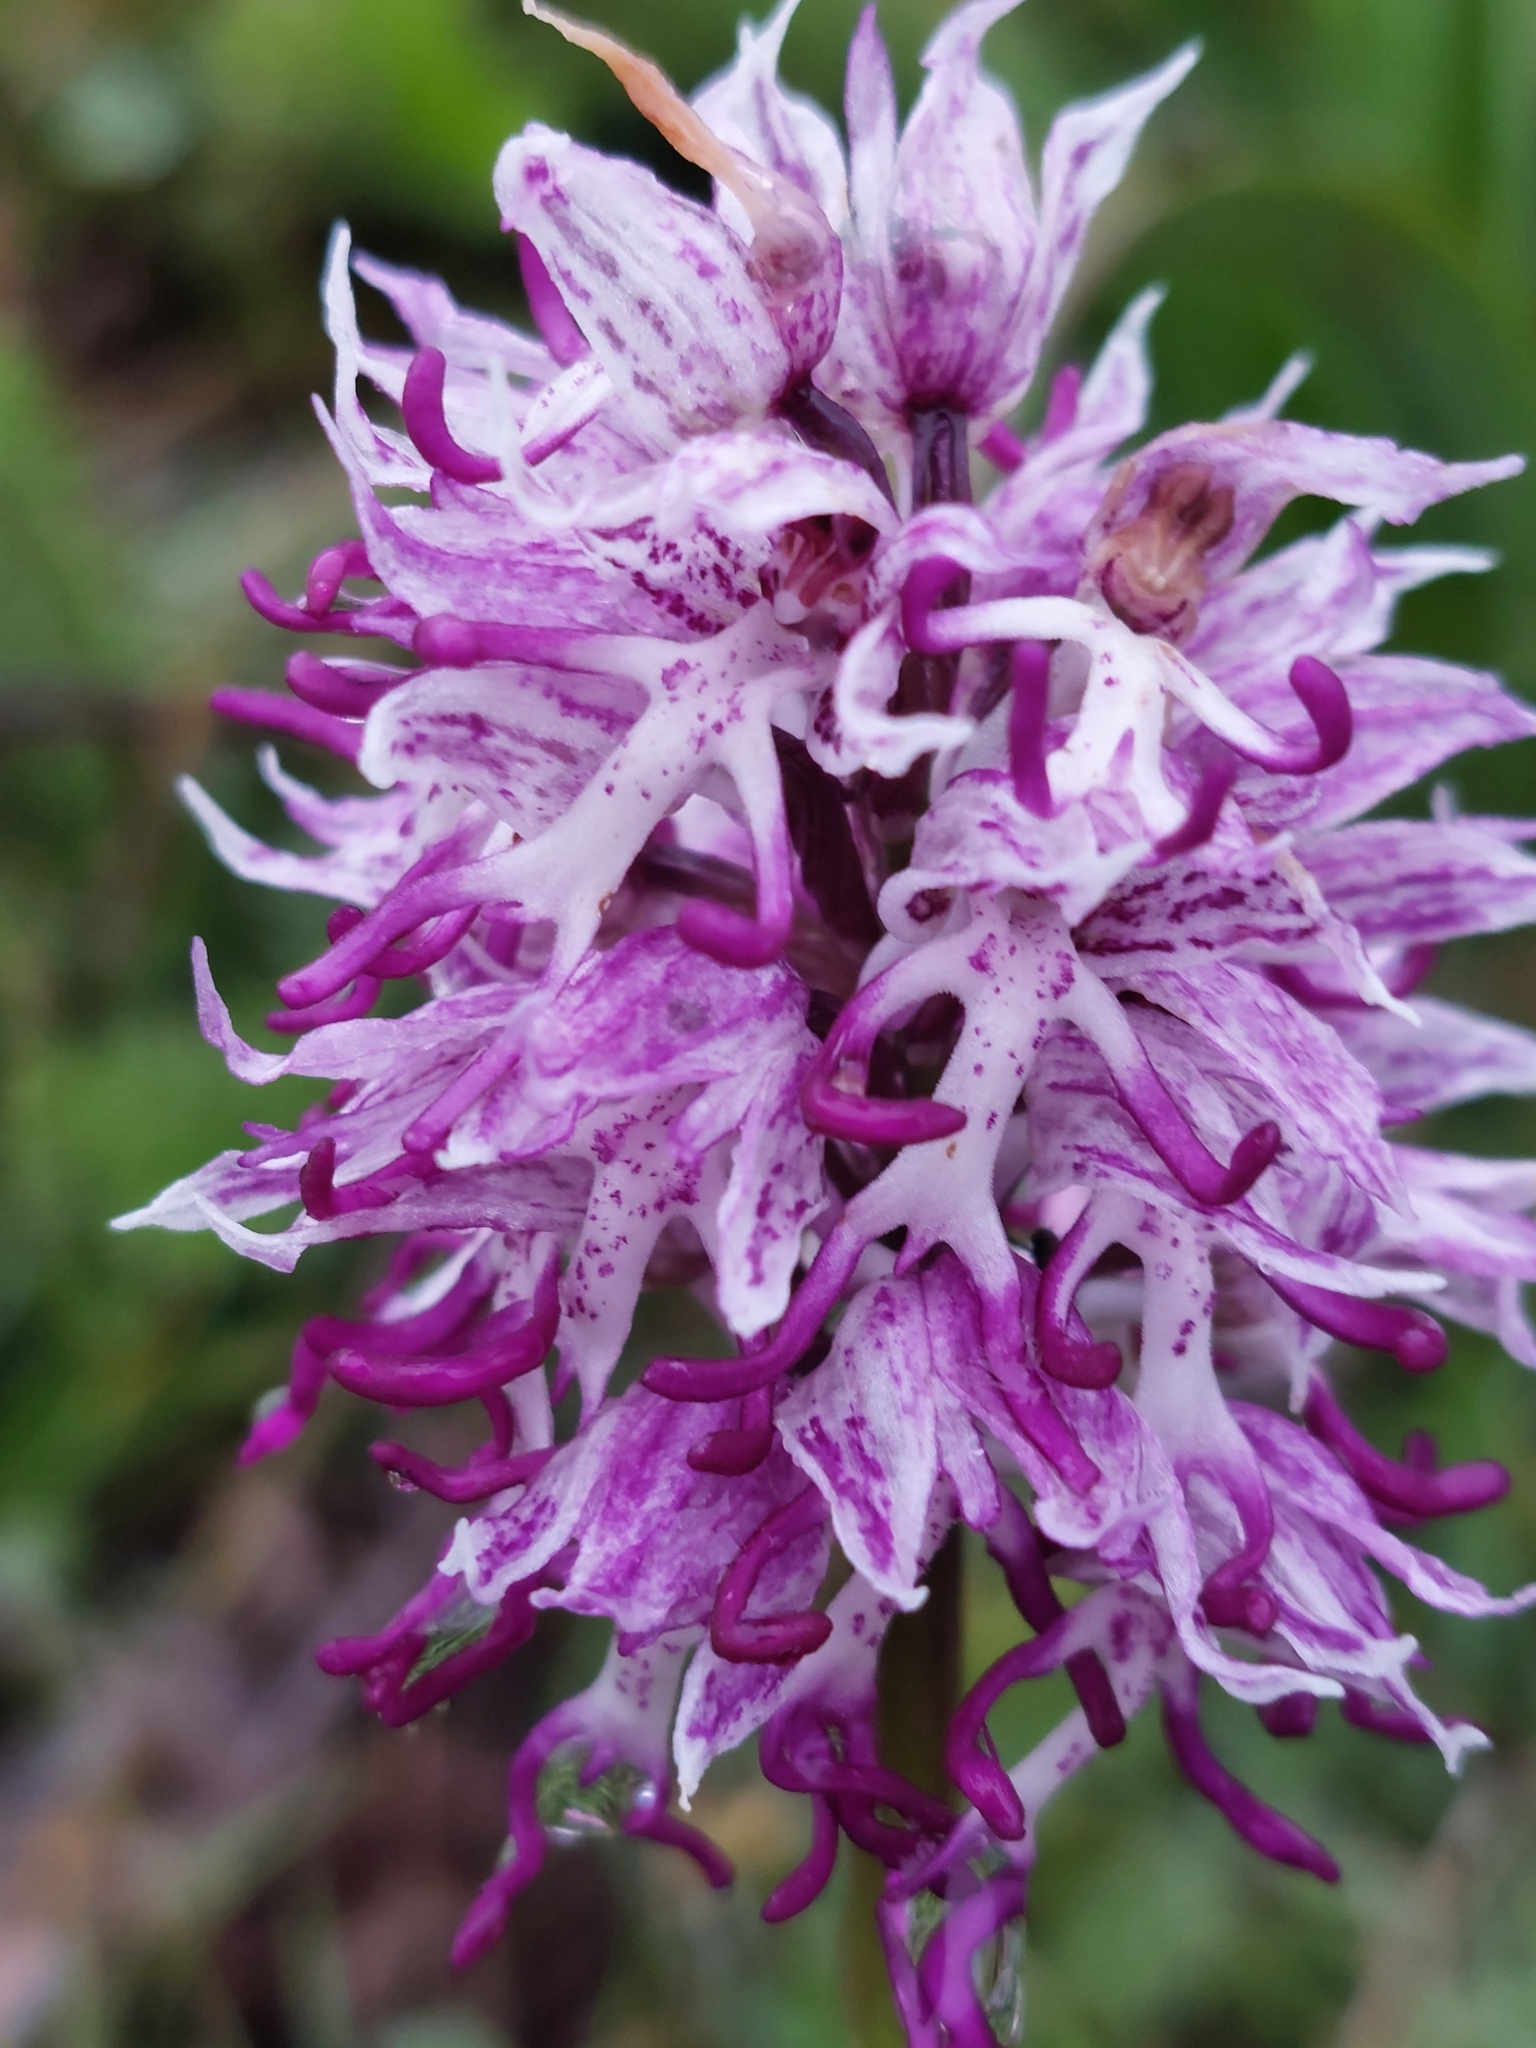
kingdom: Plantae
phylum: Tracheophyta
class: Liliopsida
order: Asparagales
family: Orchidaceae
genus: Orchis
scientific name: Orchis simia
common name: Monkey orchid
